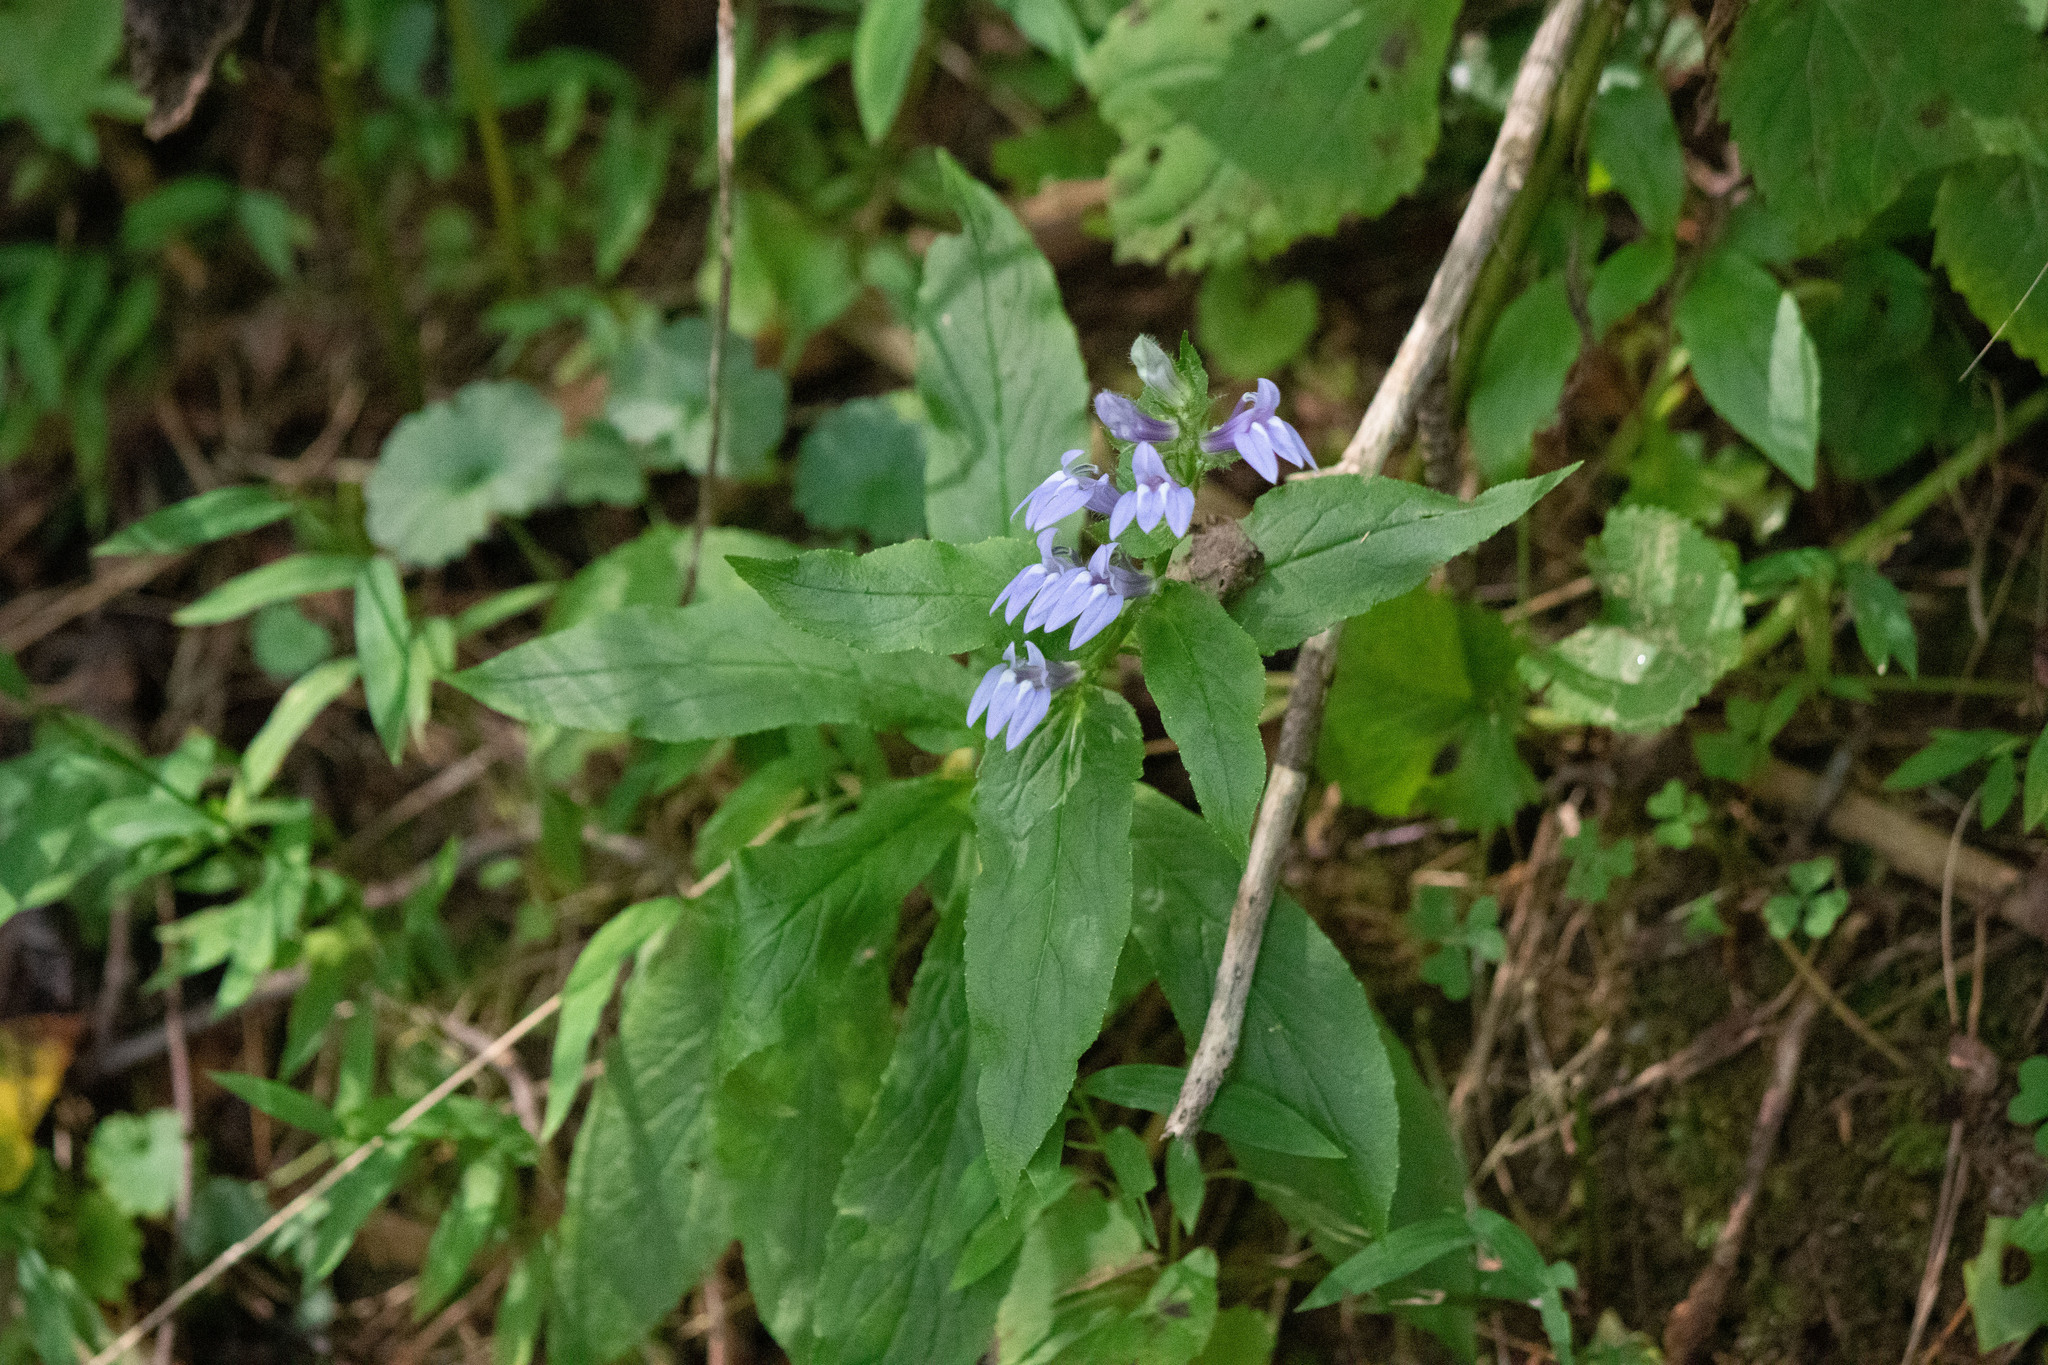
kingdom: Plantae
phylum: Tracheophyta
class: Magnoliopsida
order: Asterales
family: Campanulaceae
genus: Lobelia
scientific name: Lobelia siphilitica
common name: Great lobelia
